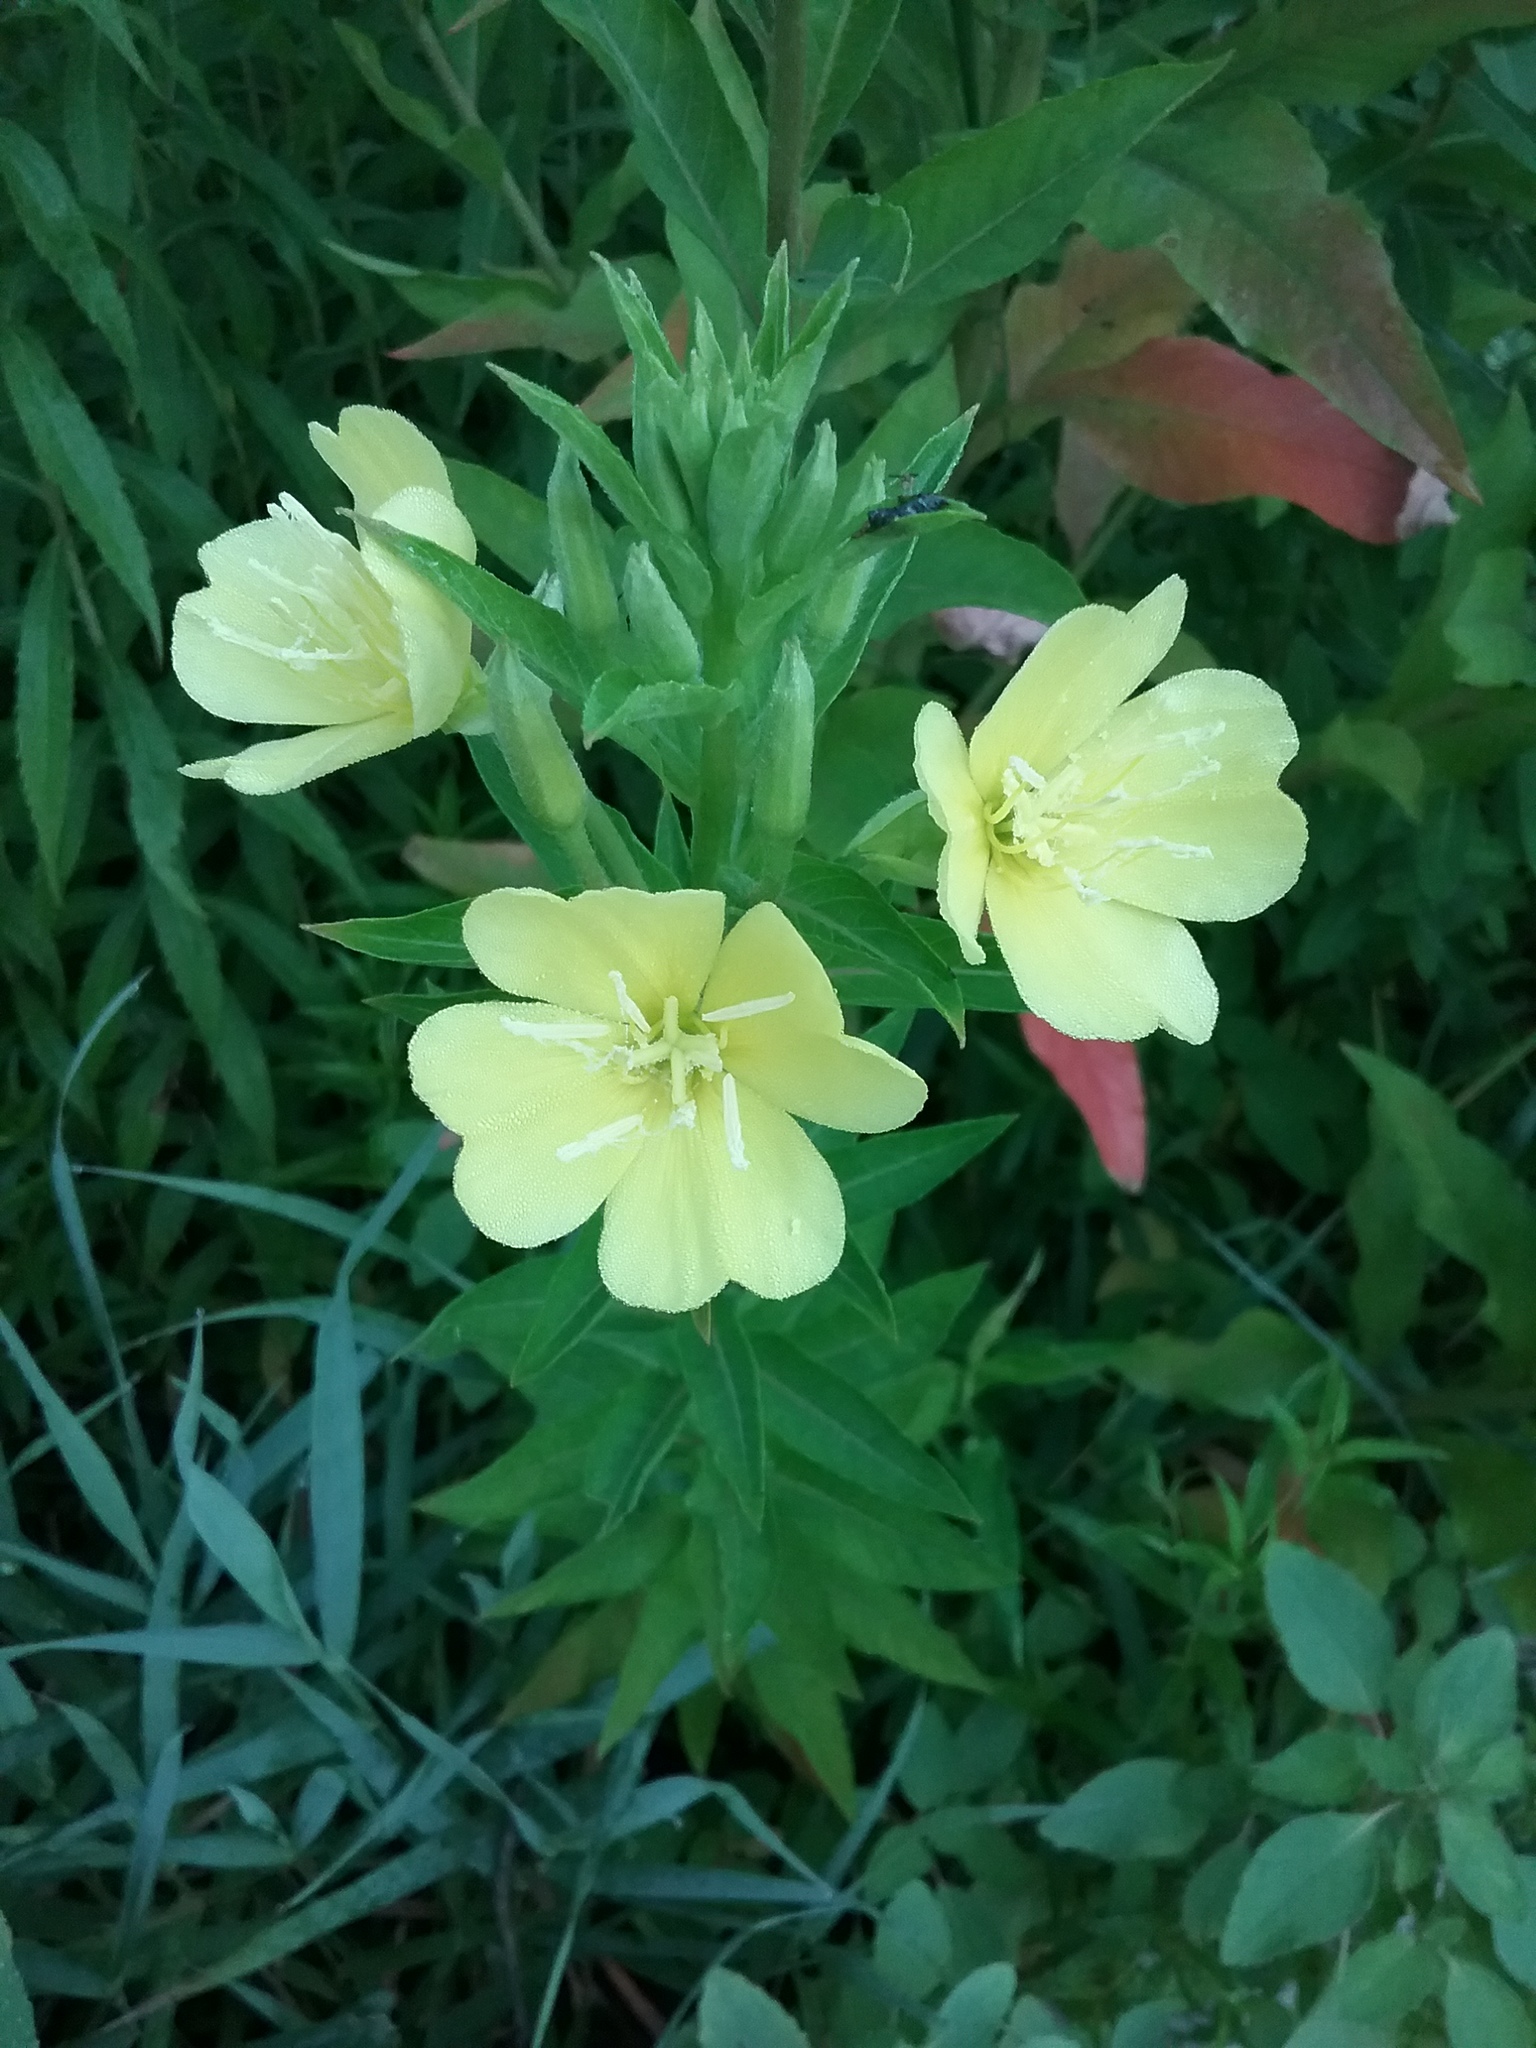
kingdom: Plantae
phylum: Tracheophyta
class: Magnoliopsida
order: Myrtales
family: Onagraceae
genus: Oenothera
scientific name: Oenothera biennis
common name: Common evening-primrose
